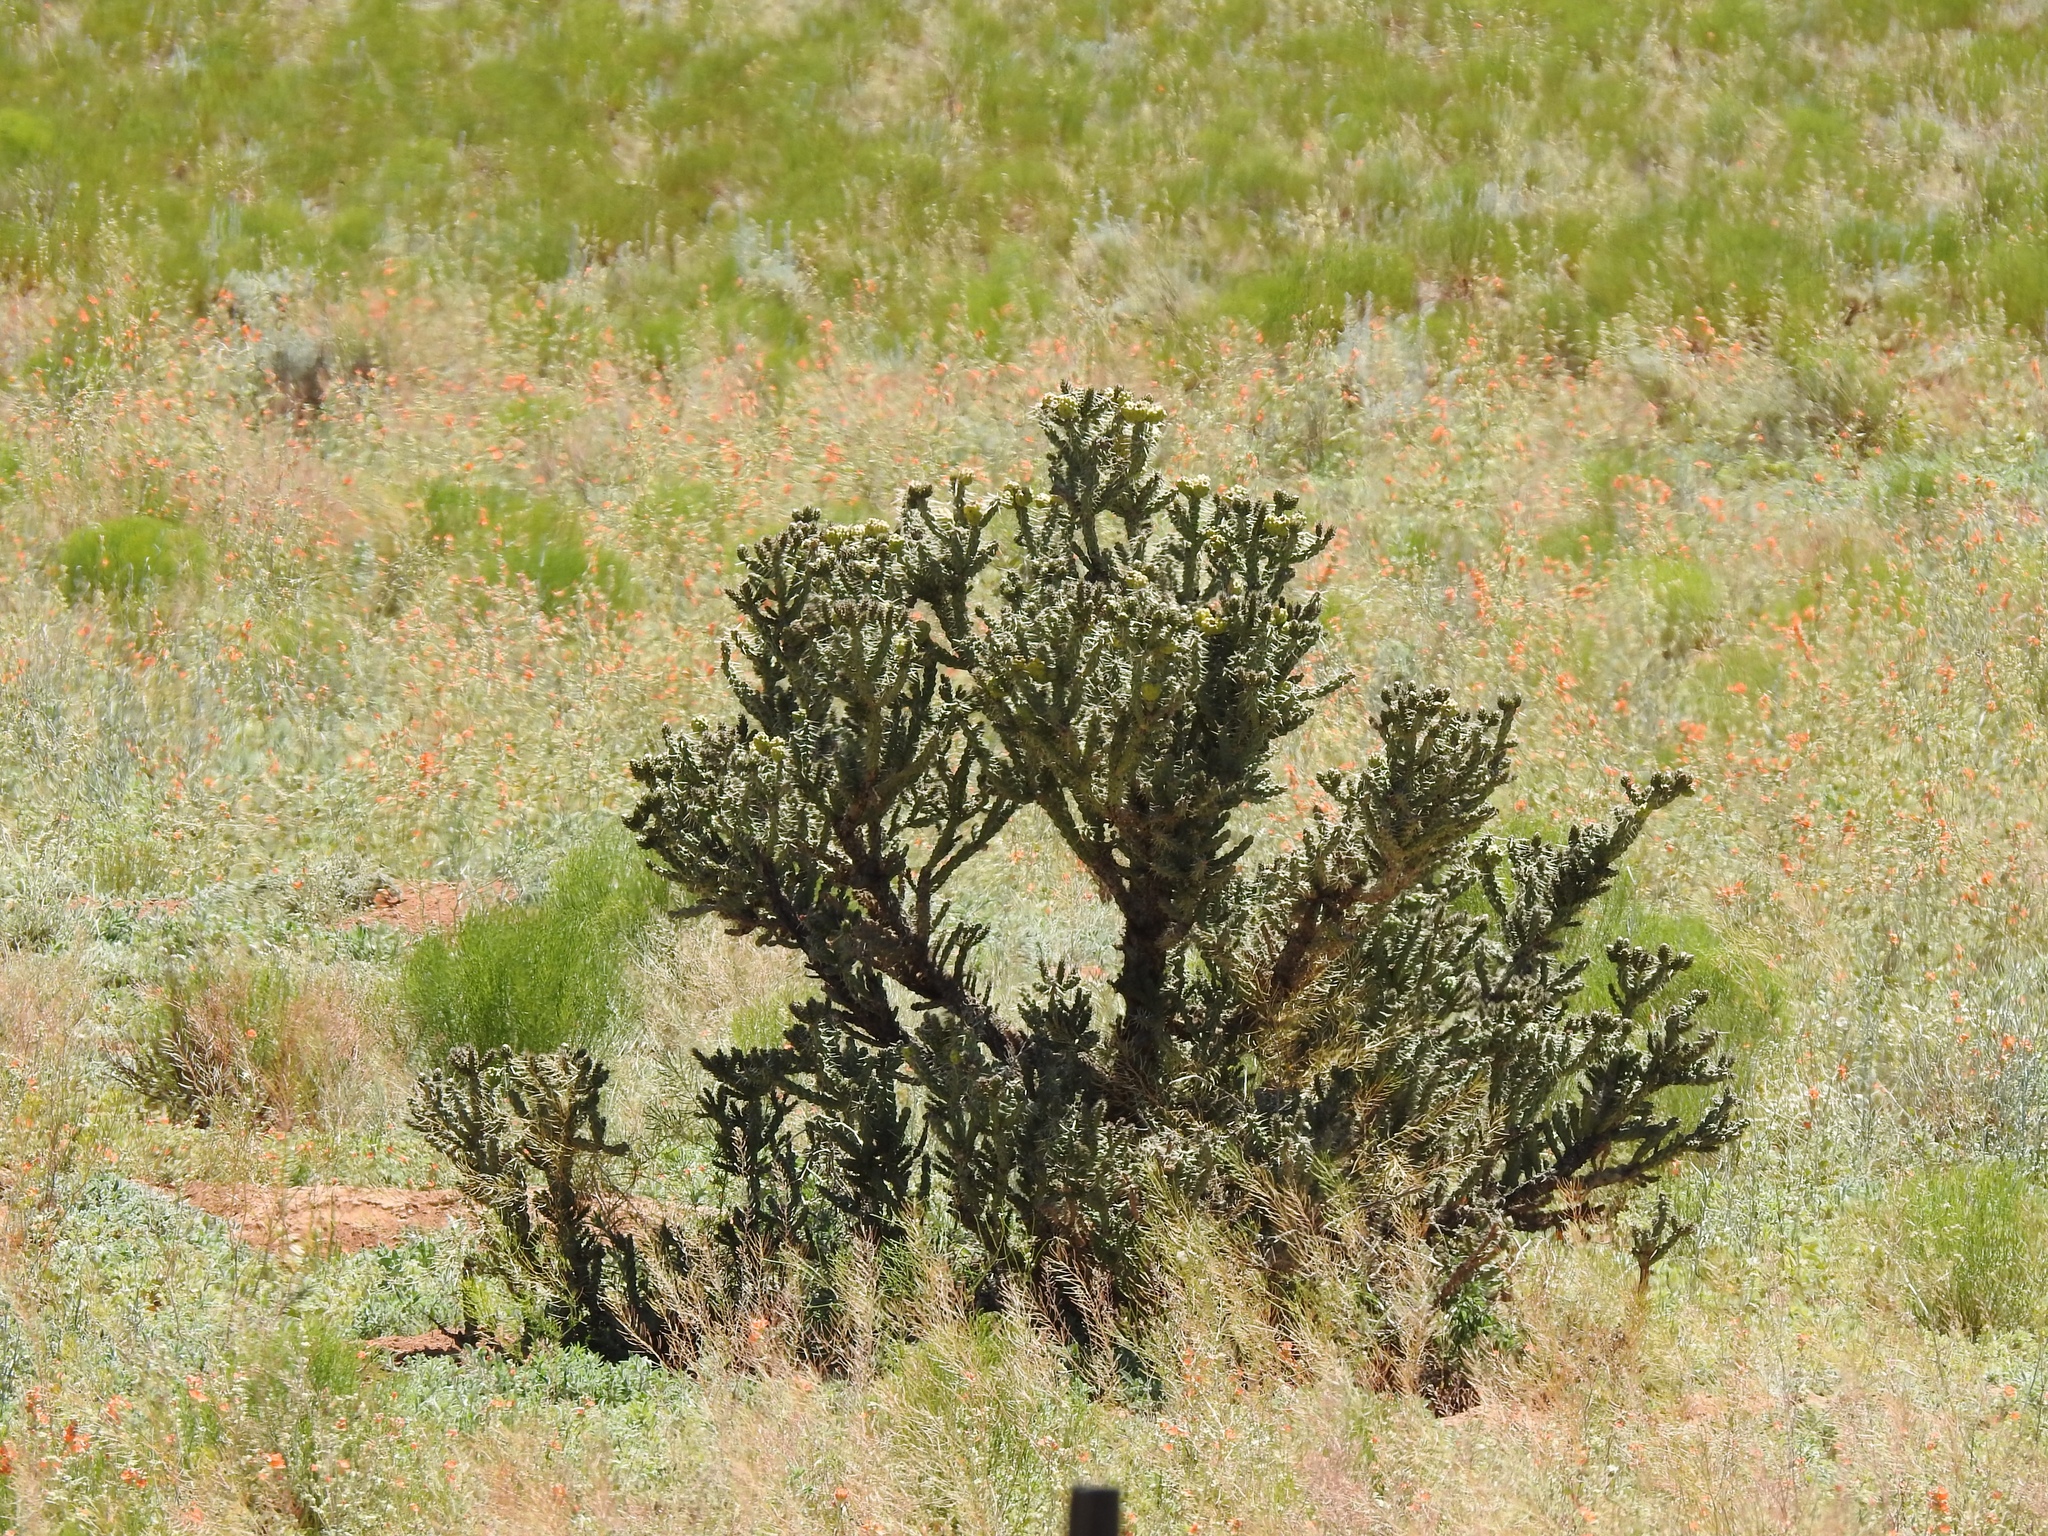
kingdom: Plantae
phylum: Tracheophyta
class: Magnoliopsida
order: Caryophyllales
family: Cactaceae
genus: Cylindropuntia
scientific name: Cylindropuntia whipplei
